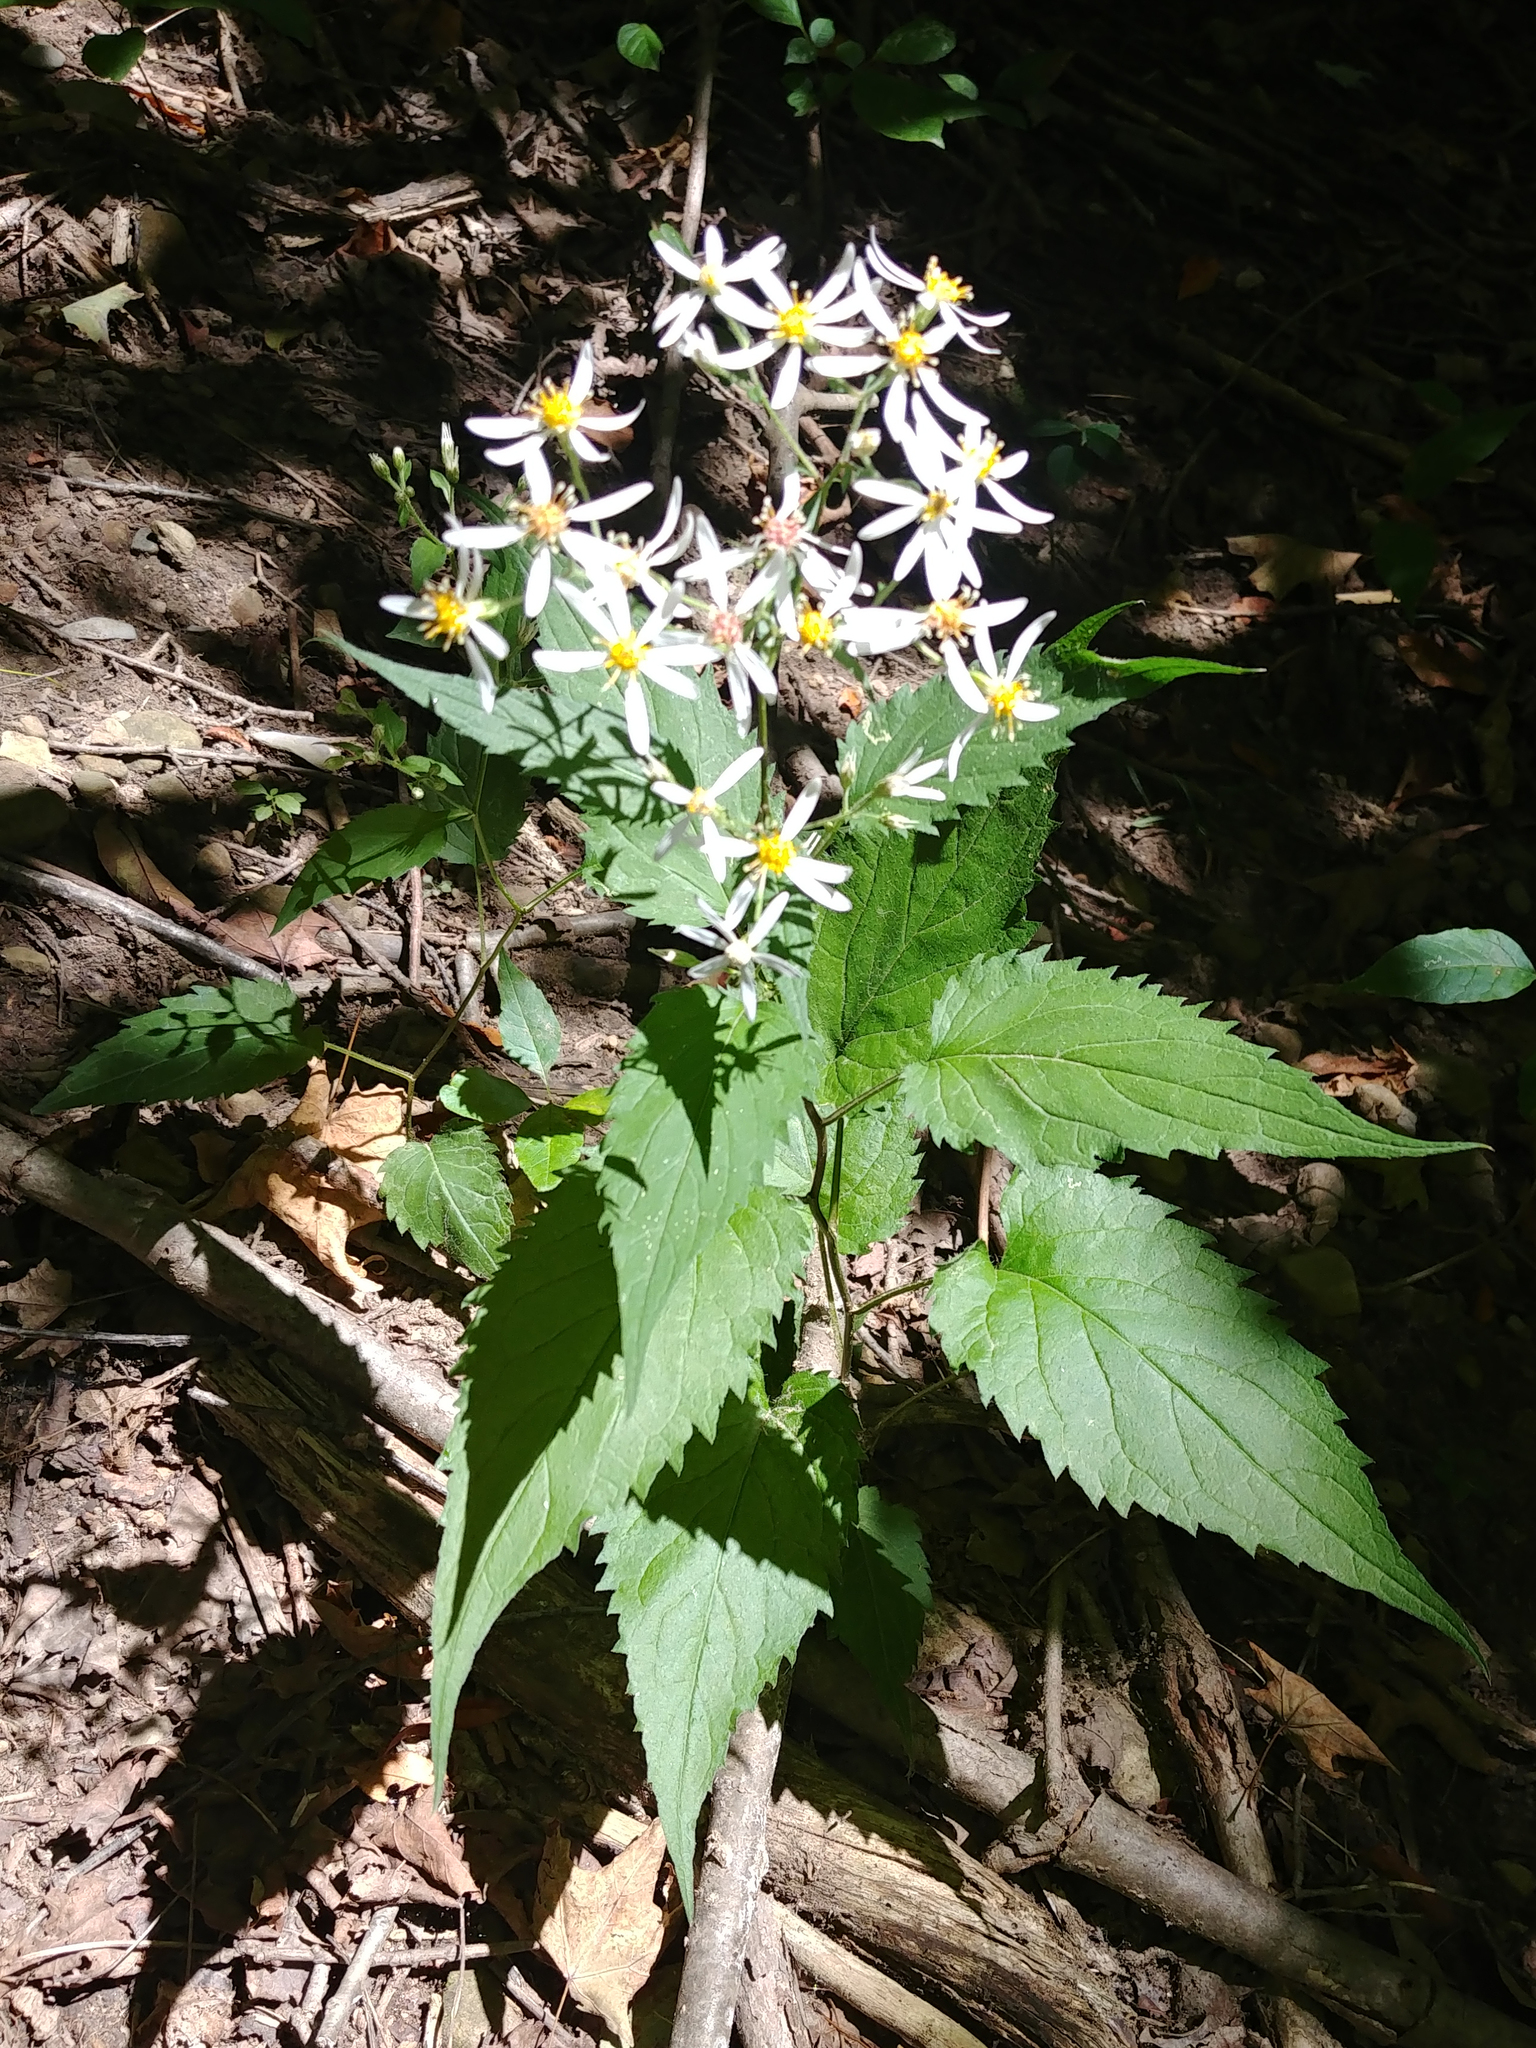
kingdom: Plantae
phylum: Tracheophyta
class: Magnoliopsida
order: Asterales
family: Asteraceae
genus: Eurybia
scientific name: Eurybia divaricata
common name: White wood aster
